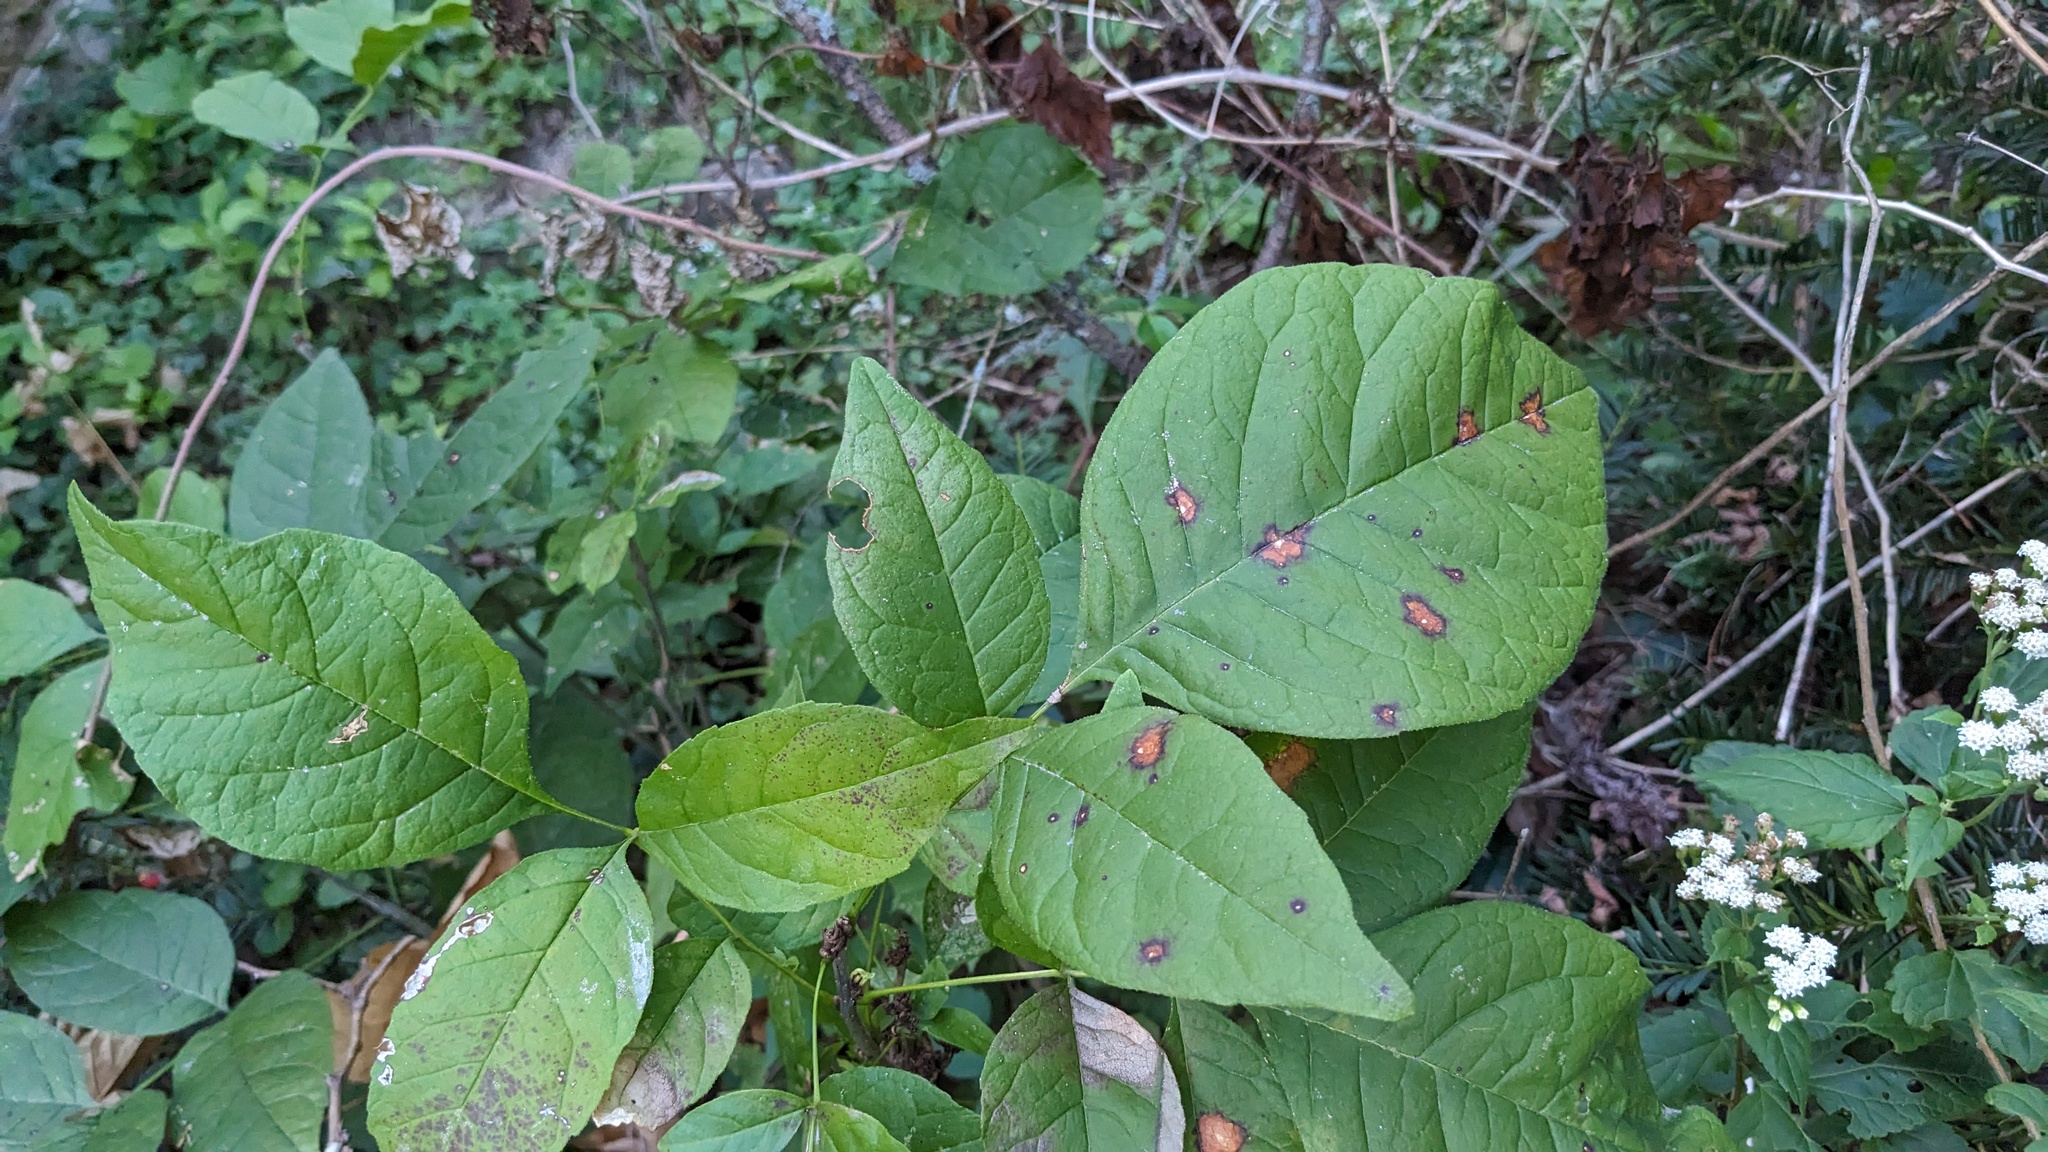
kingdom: Fungi
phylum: Ascomycota
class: Dothideomycetes
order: Mycosphaerellales
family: Mycosphaerellaceae
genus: Mycosphaerella
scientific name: Mycosphaerella fraxinicola
